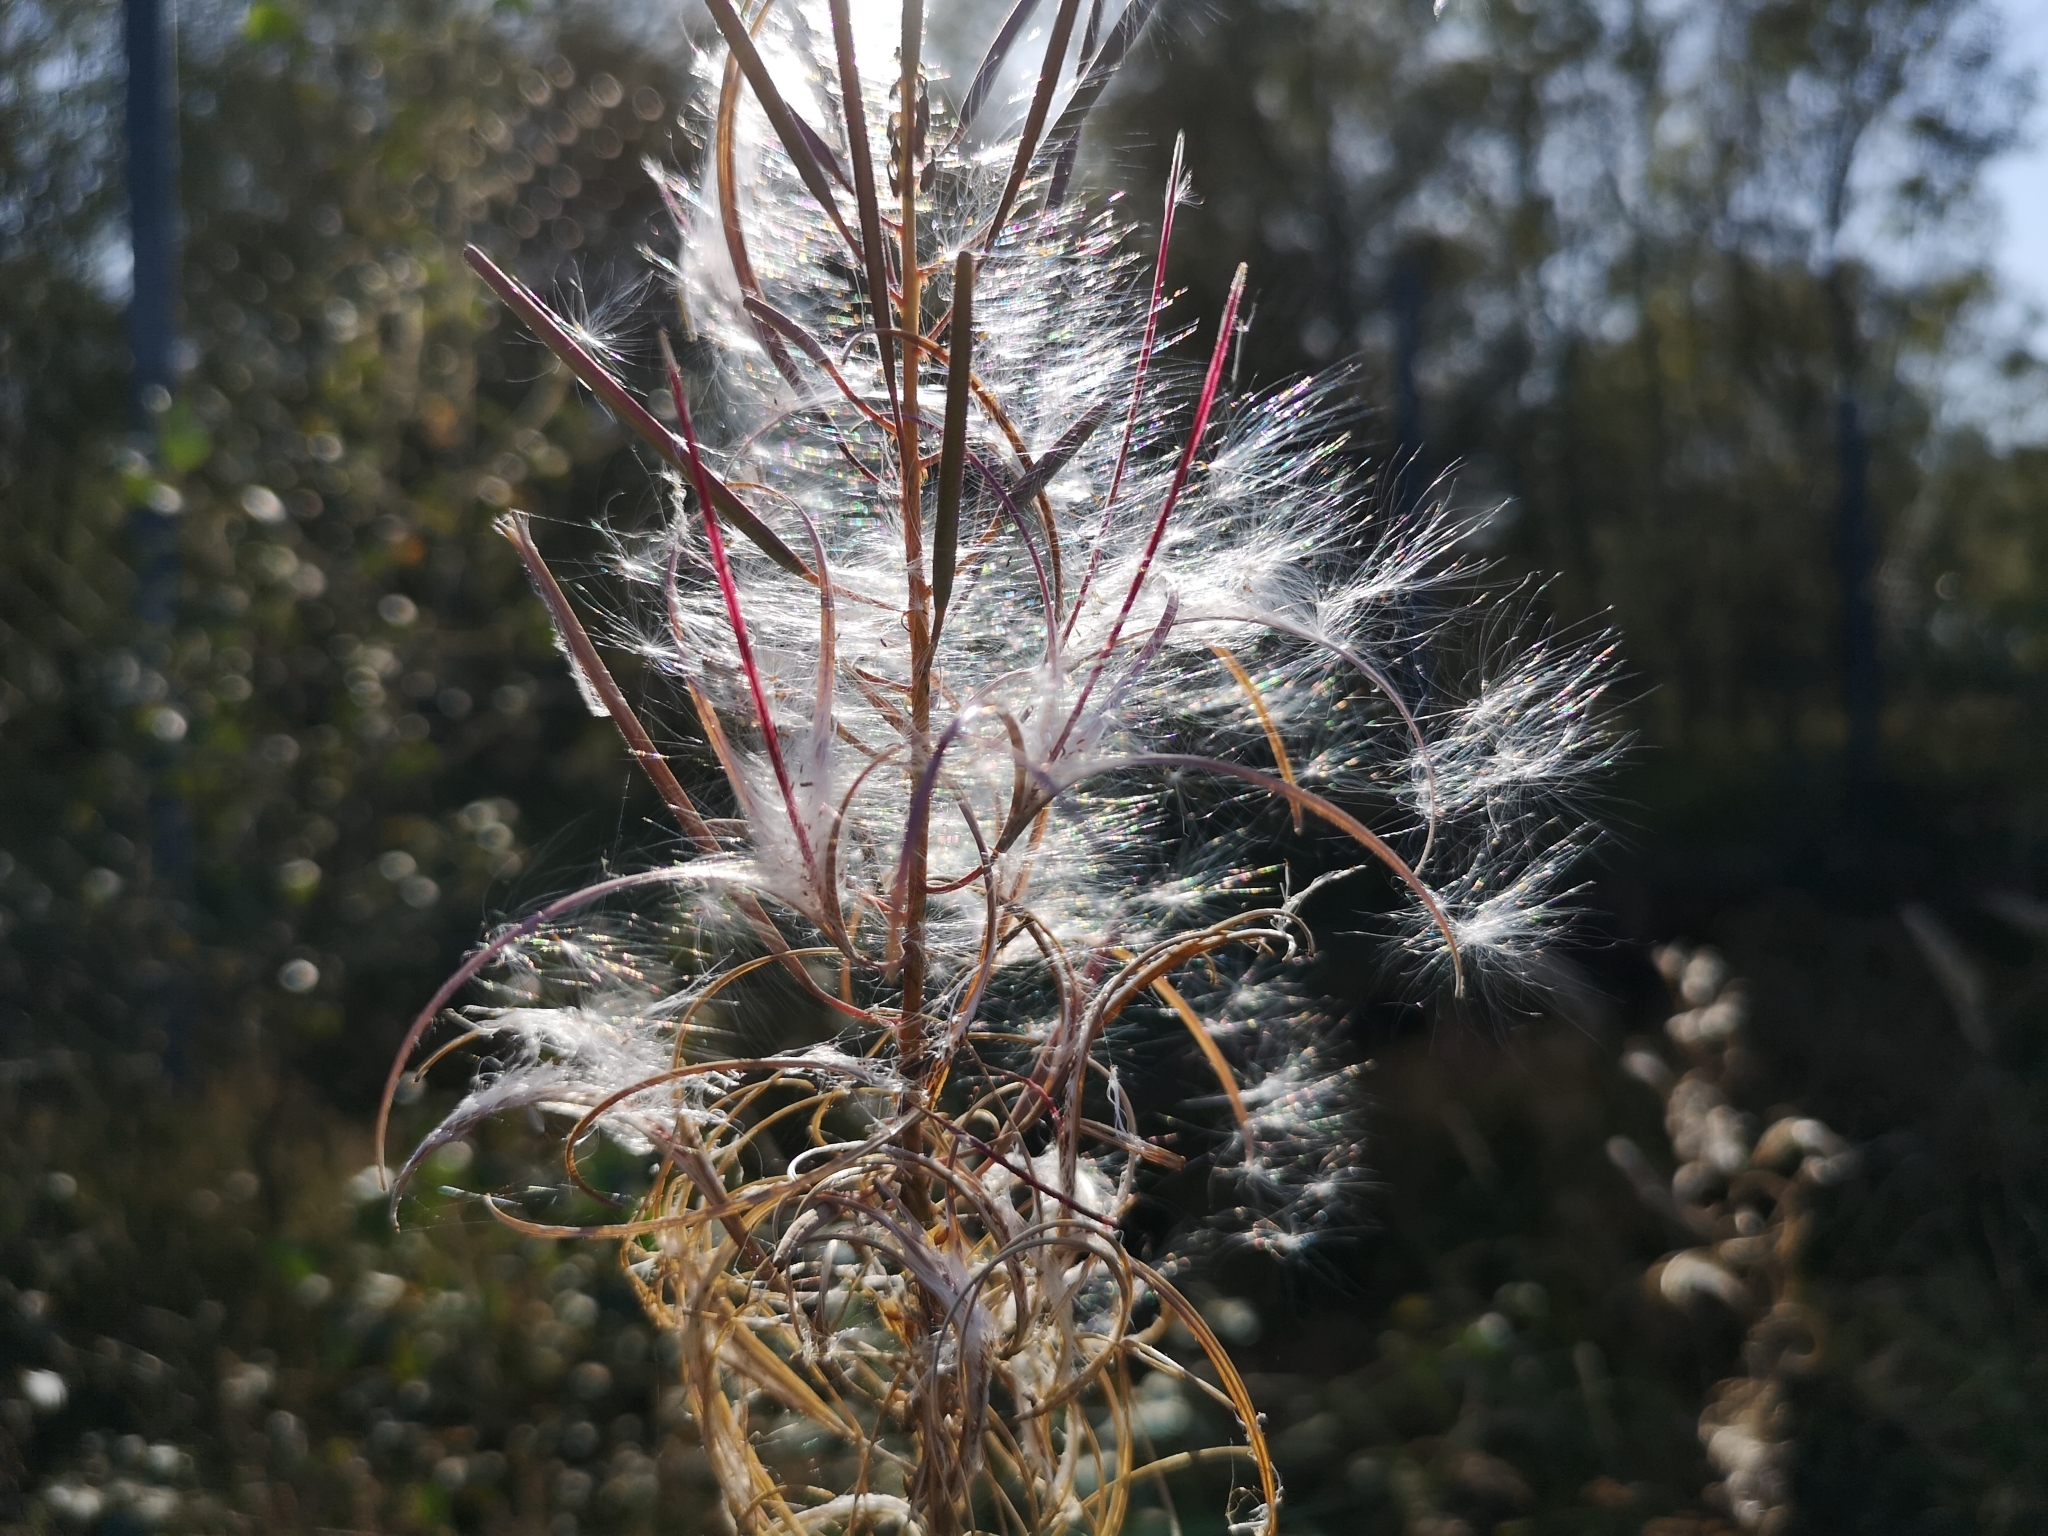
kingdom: Plantae
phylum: Tracheophyta
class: Magnoliopsida
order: Myrtales
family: Onagraceae
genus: Chamaenerion
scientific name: Chamaenerion angustifolium
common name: Fireweed
